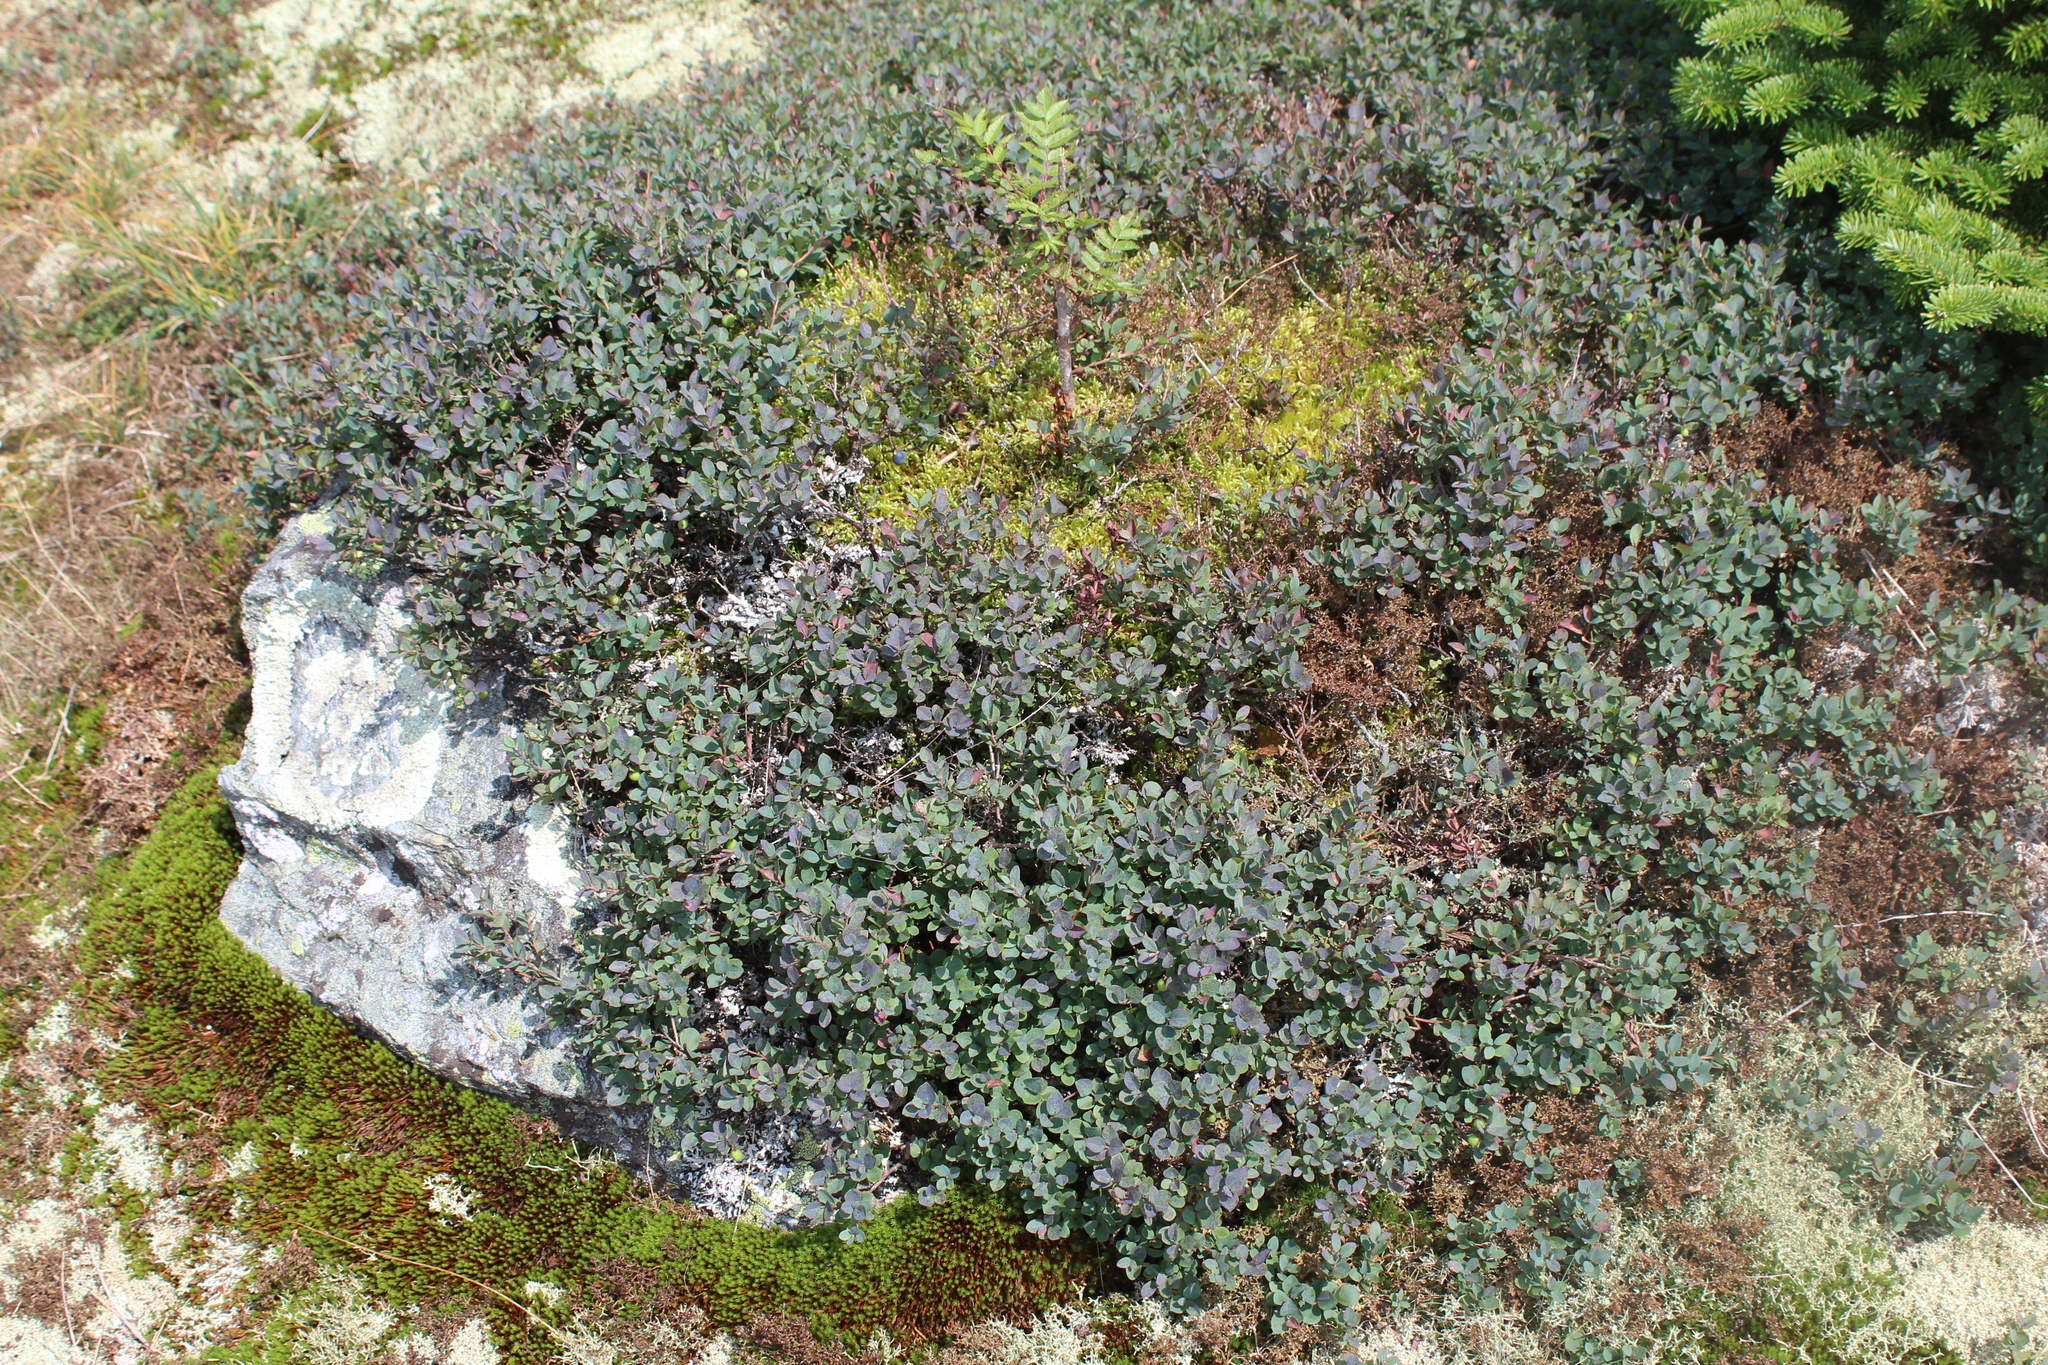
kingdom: Plantae
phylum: Tracheophyta
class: Magnoliopsida
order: Ericales
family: Ericaceae
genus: Vaccinium
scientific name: Vaccinium uliginosum
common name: Bog bilberry
